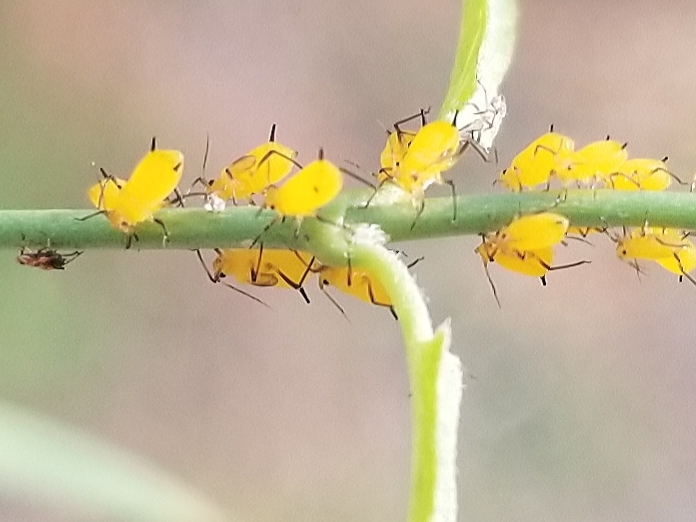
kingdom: Animalia
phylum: Arthropoda
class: Insecta
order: Hemiptera
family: Aphididae
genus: Aphis
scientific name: Aphis nerii
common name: Oleander aphid
